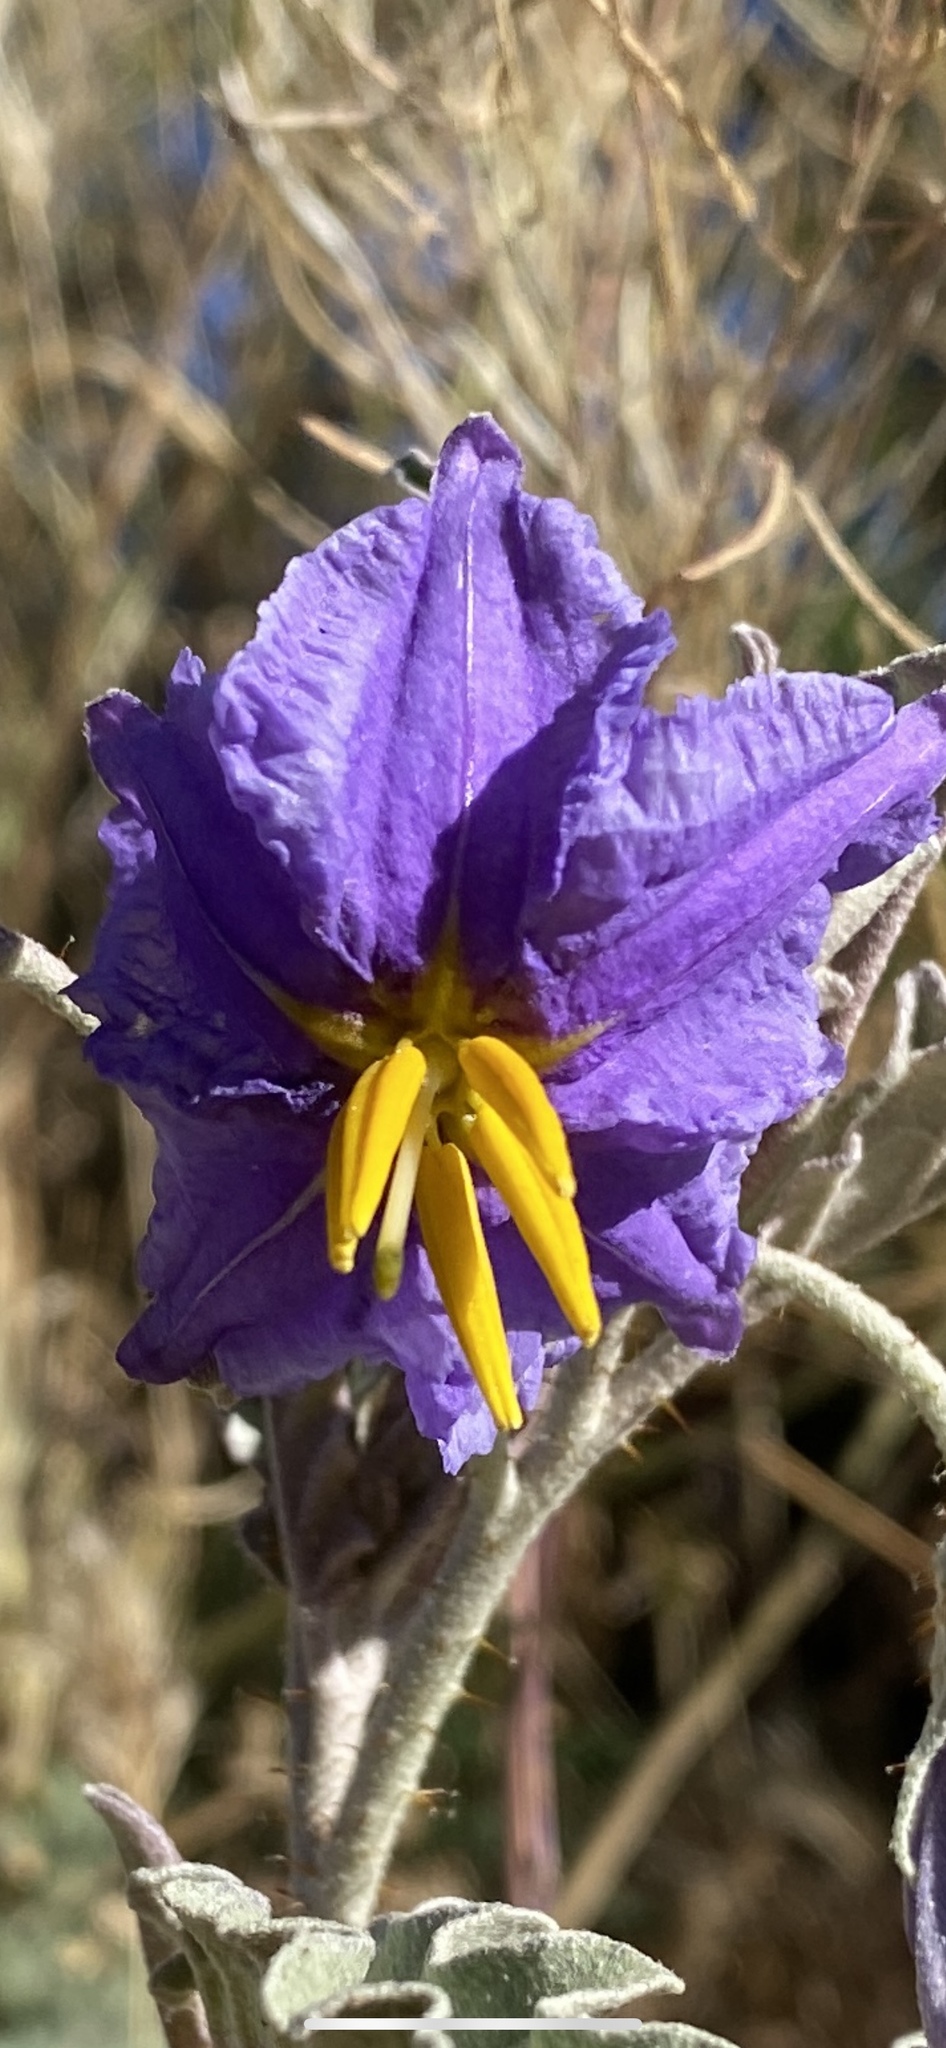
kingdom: Plantae
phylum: Tracheophyta
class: Magnoliopsida
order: Solanales
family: Solanaceae
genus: Solanum
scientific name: Solanum elaeagnifolium
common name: Silverleaf nightshade
